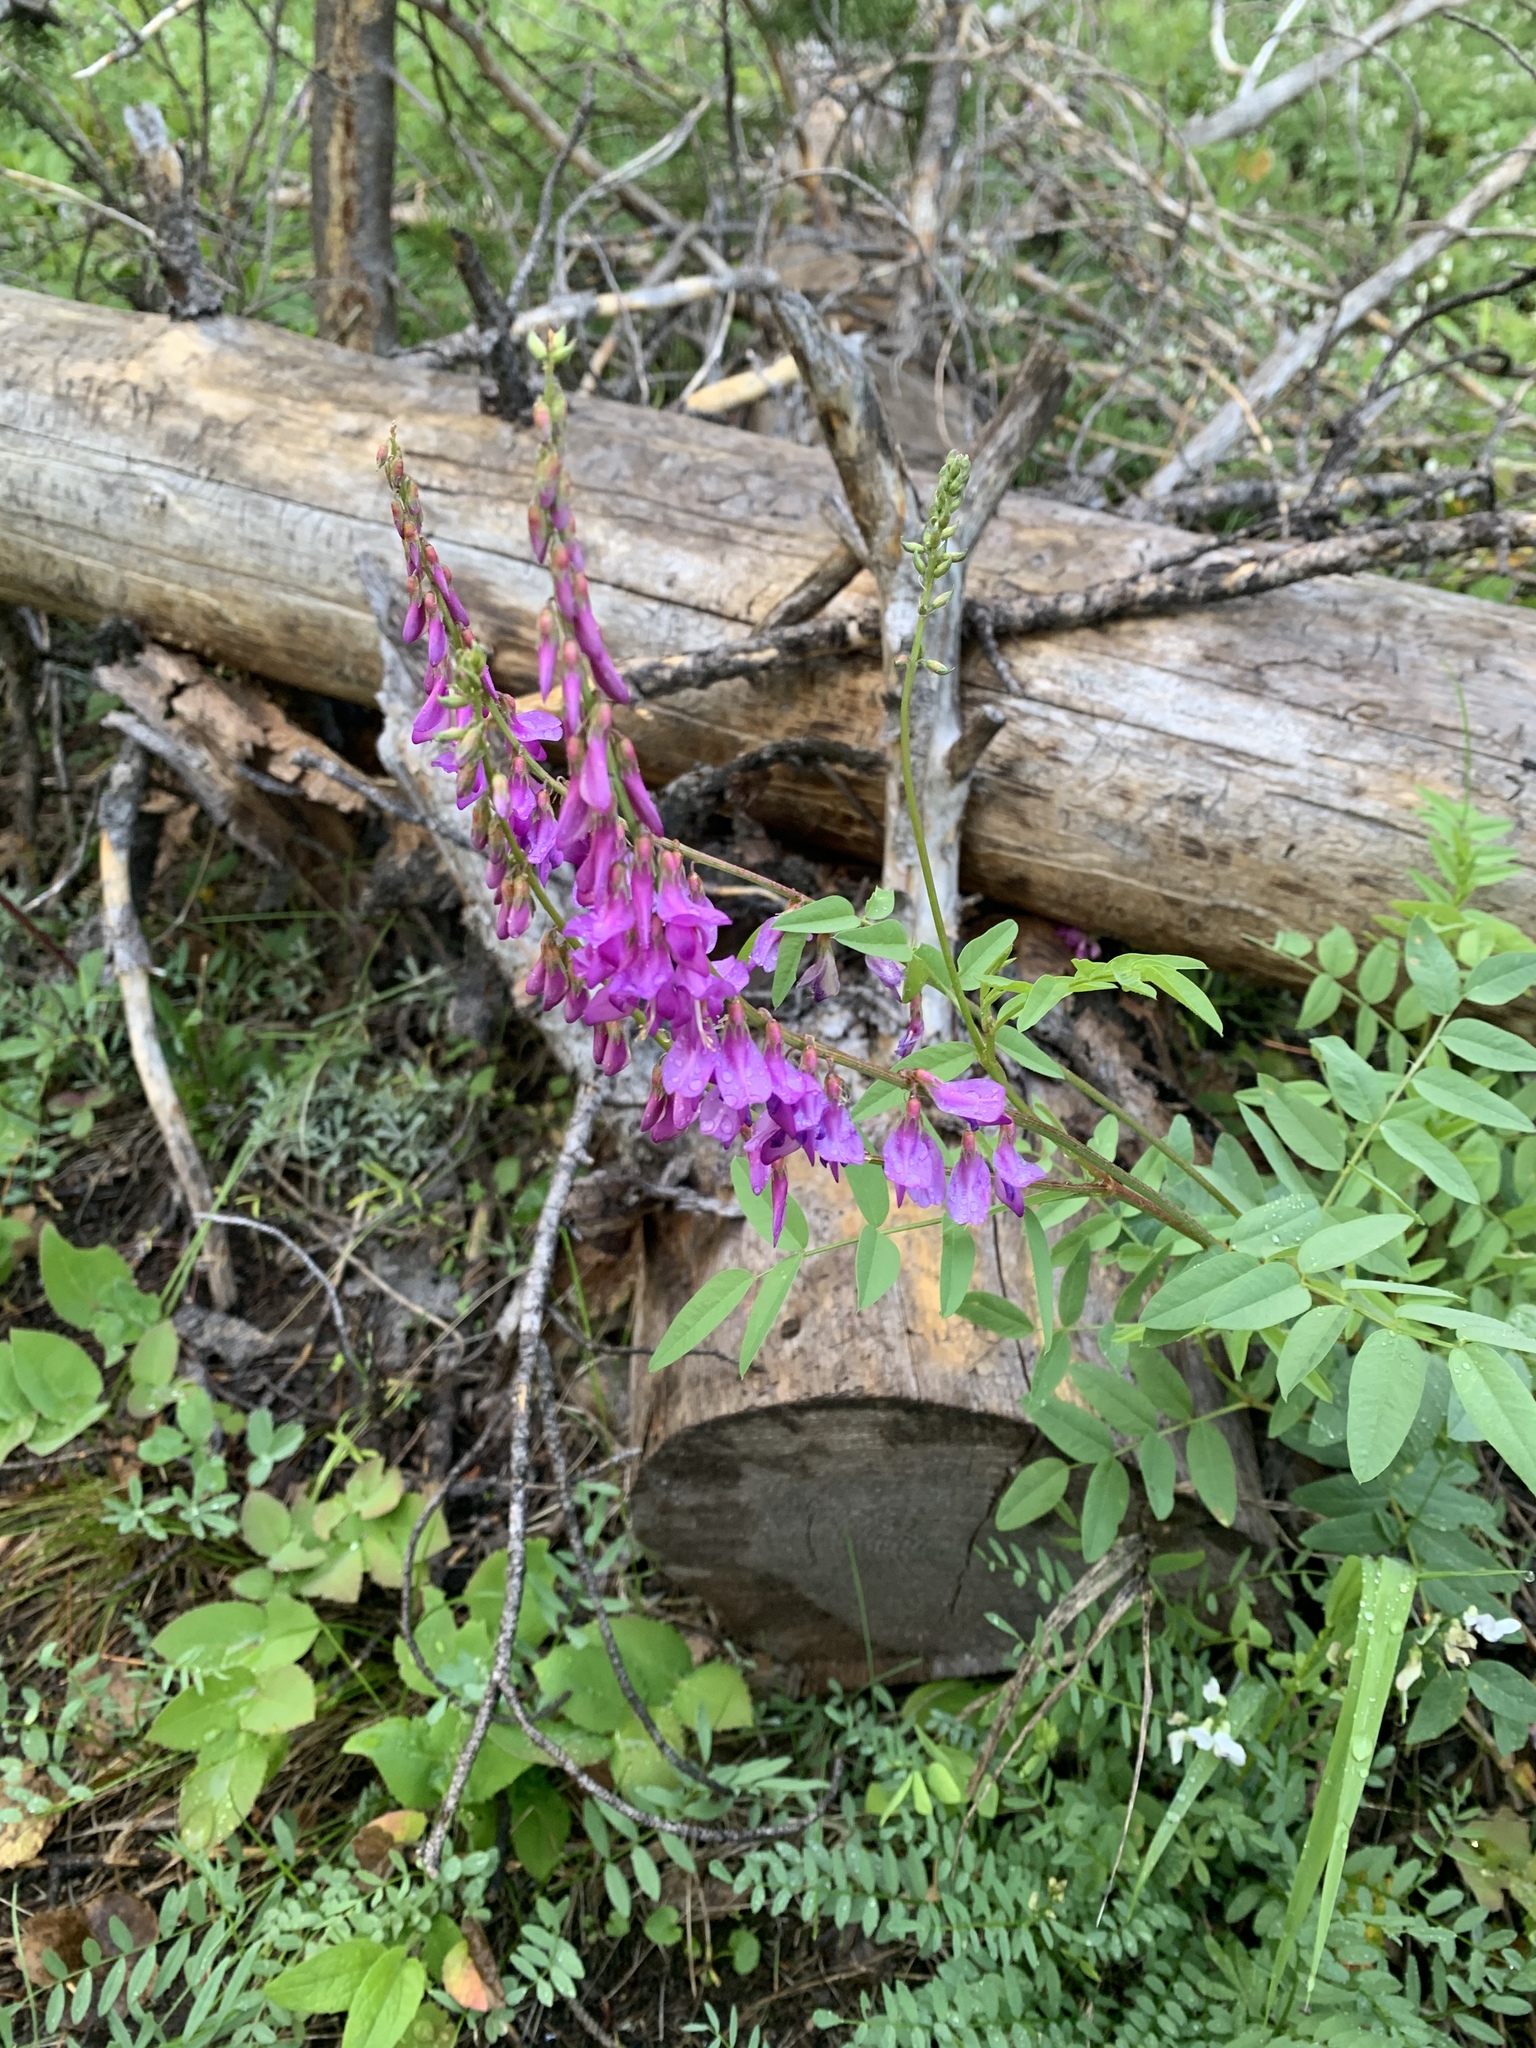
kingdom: Plantae
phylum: Tracheophyta
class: Magnoliopsida
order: Fabales
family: Fabaceae
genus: Hedysarum
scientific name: Hedysarum alpinum
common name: Alpine sweet-vetch
